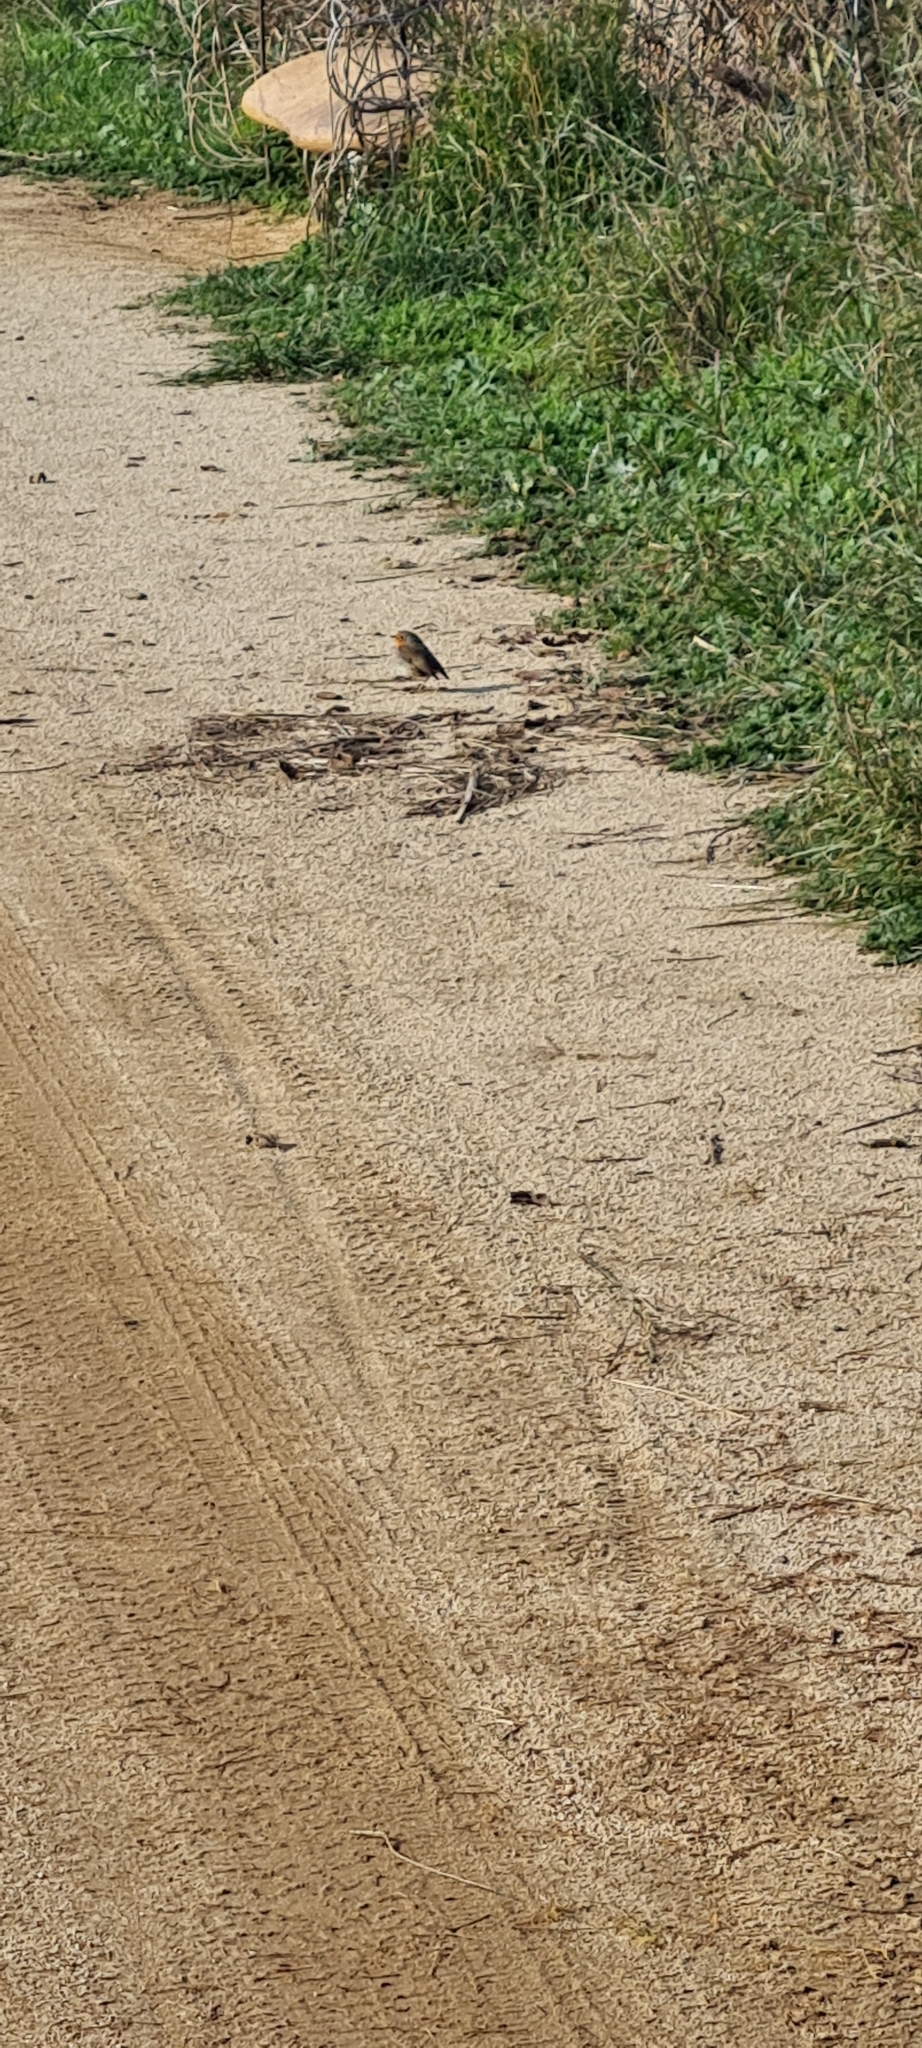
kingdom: Animalia
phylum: Chordata
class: Aves
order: Passeriformes
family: Muscicapidae
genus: Erithacus
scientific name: Erithacus rubecula
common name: European robin
